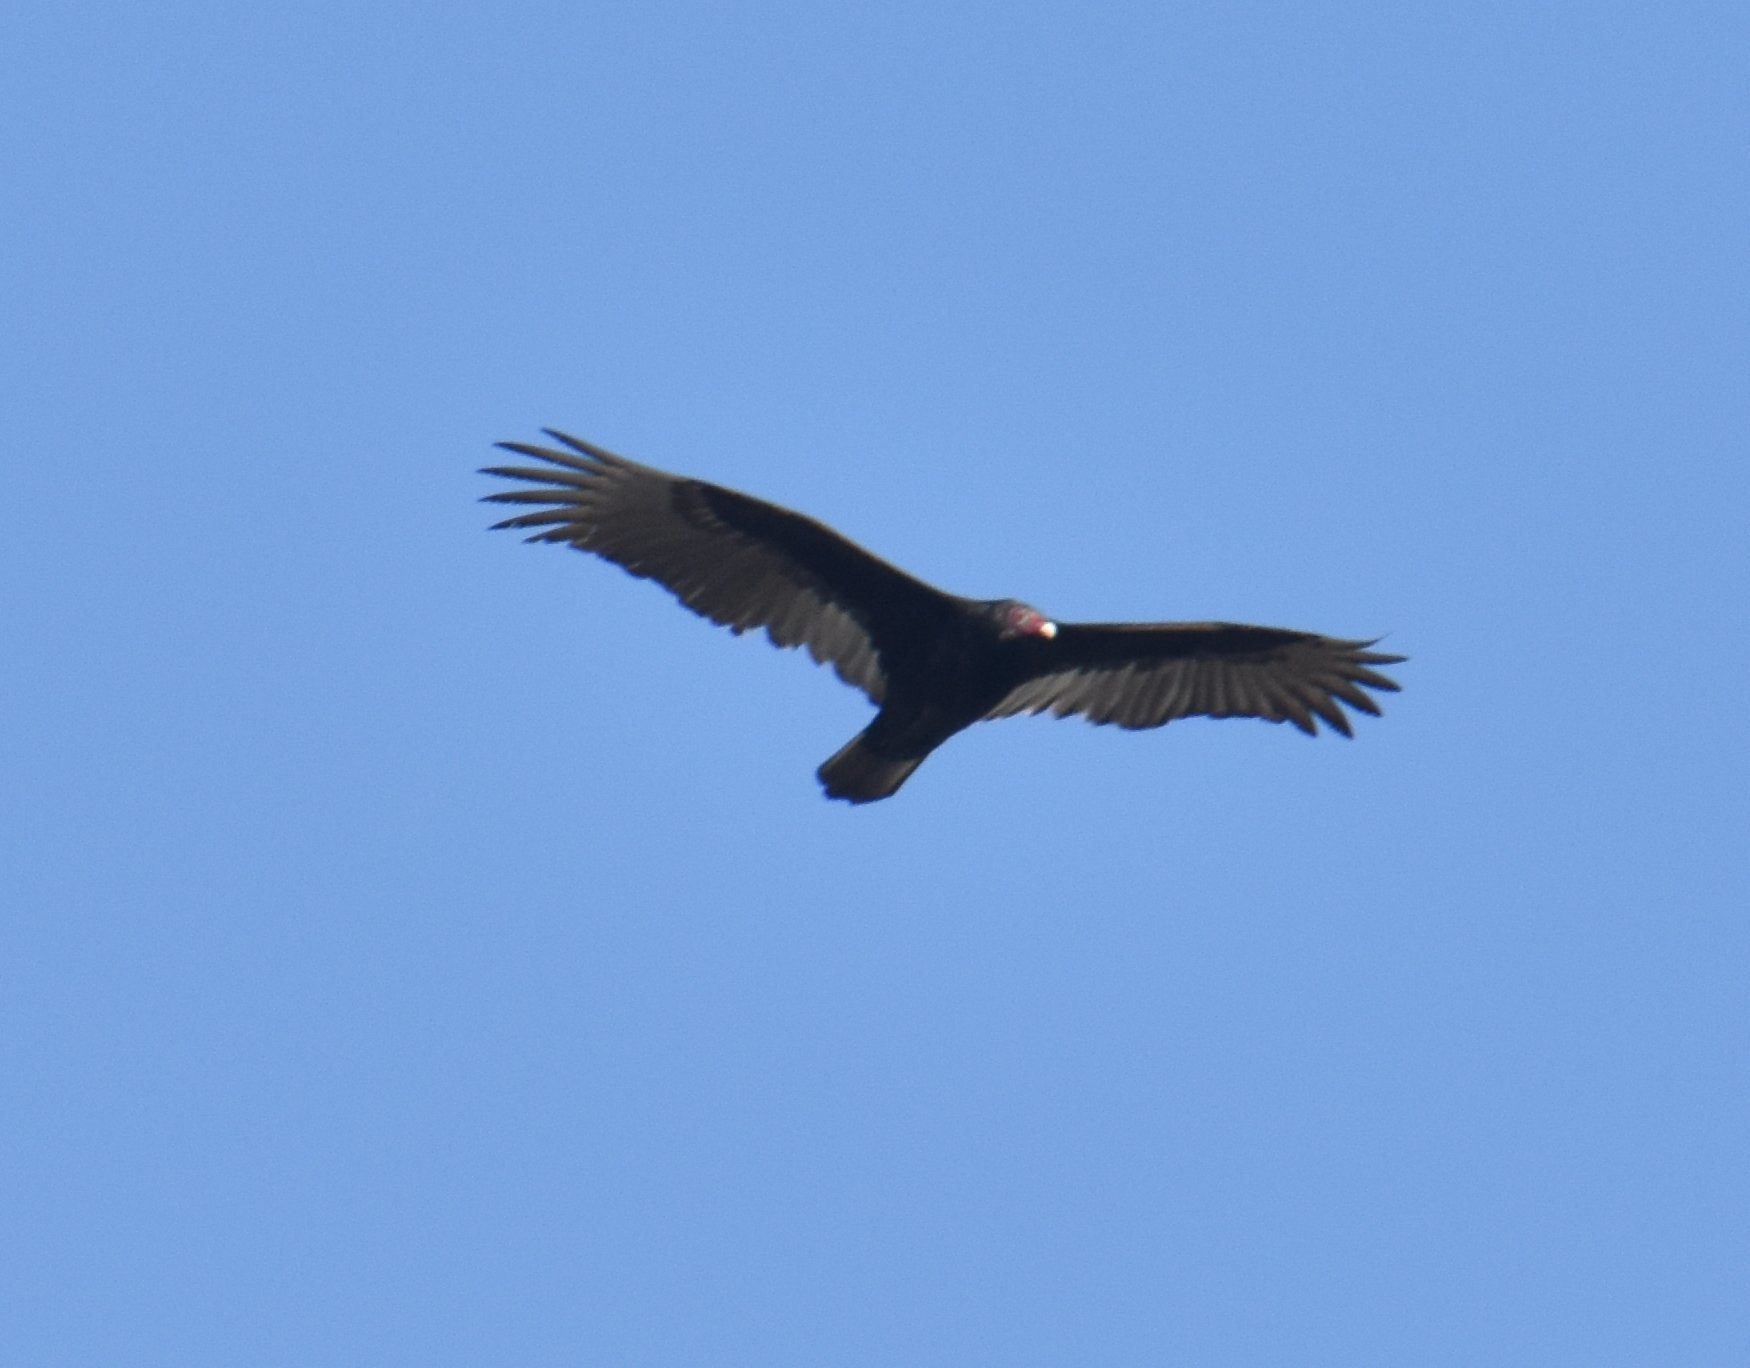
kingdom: Animalia
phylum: Chordata
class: Aves
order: Accipitriformes
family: Cathartidae
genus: Cathartes
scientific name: Cathartes aura
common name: Turkey vulture
